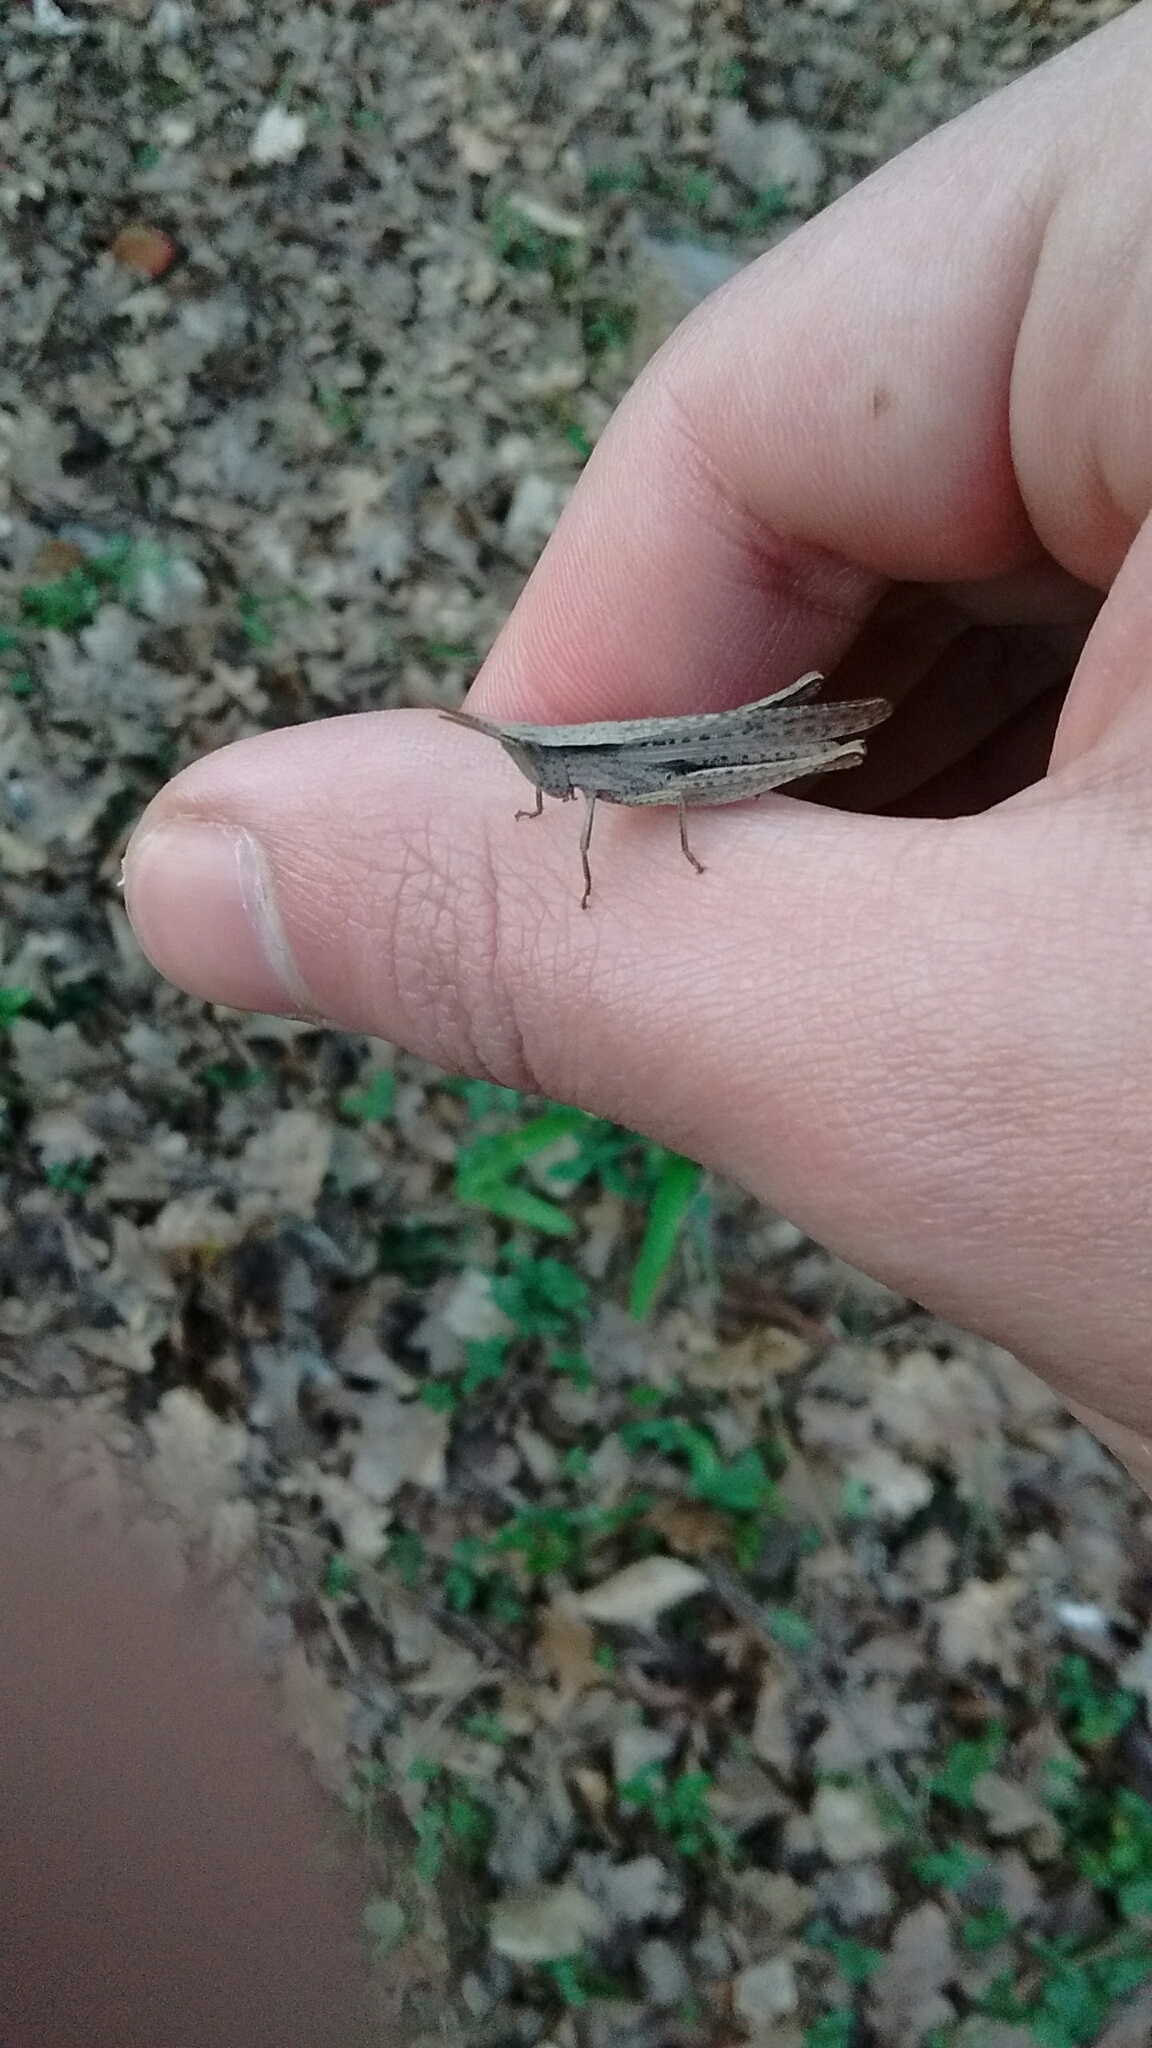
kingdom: Animalia
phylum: Arthropoda
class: Insecta
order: Orthoptera
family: Acrididae
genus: Laplatacris
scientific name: Laplatacris dispar
